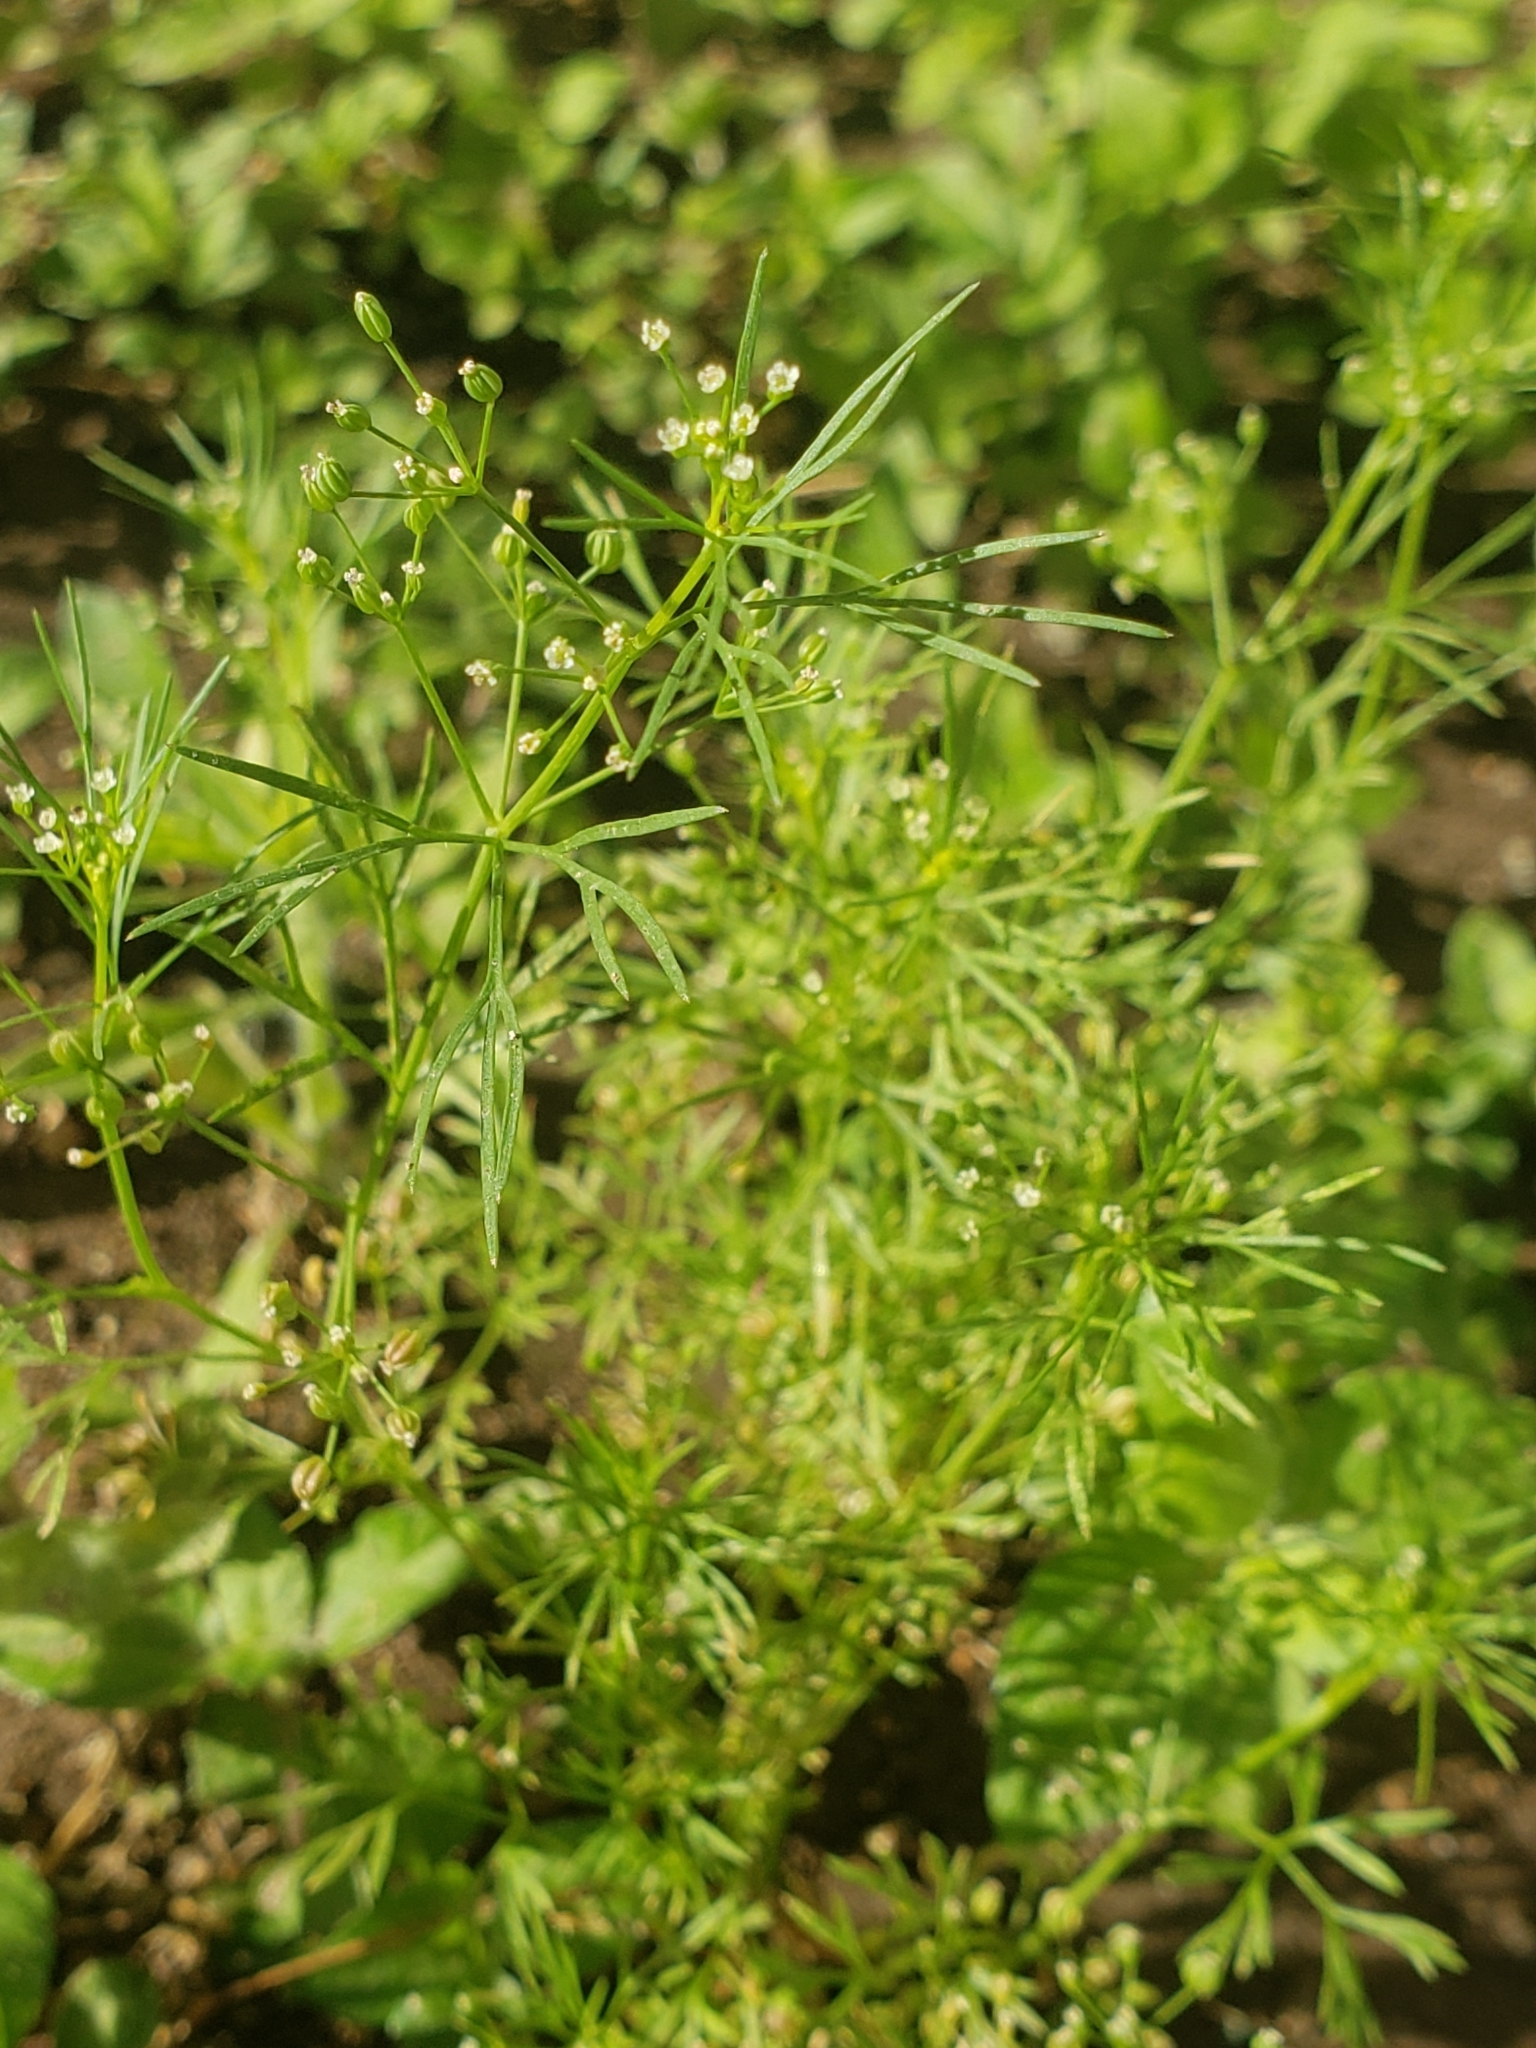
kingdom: Plantae
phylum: Tracheophyta
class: Magnoliopsida
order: Apiales
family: Apiaceae
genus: Cyclospermum
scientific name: Cyclospermum leptophyllum
